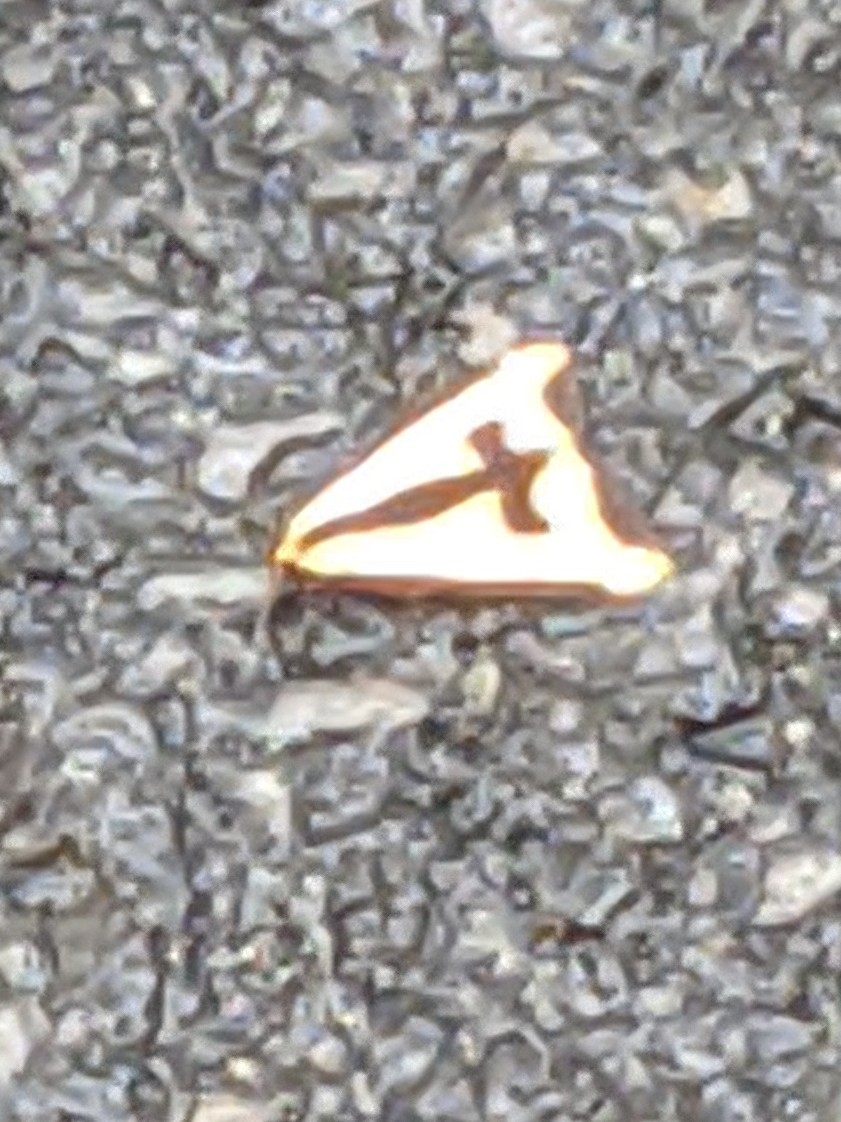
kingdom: Animalia
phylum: Arthropoda
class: Insecta
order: Lepidoptera
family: Erebidae
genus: Haploa
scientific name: Haploa clymene
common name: Clymene moth
